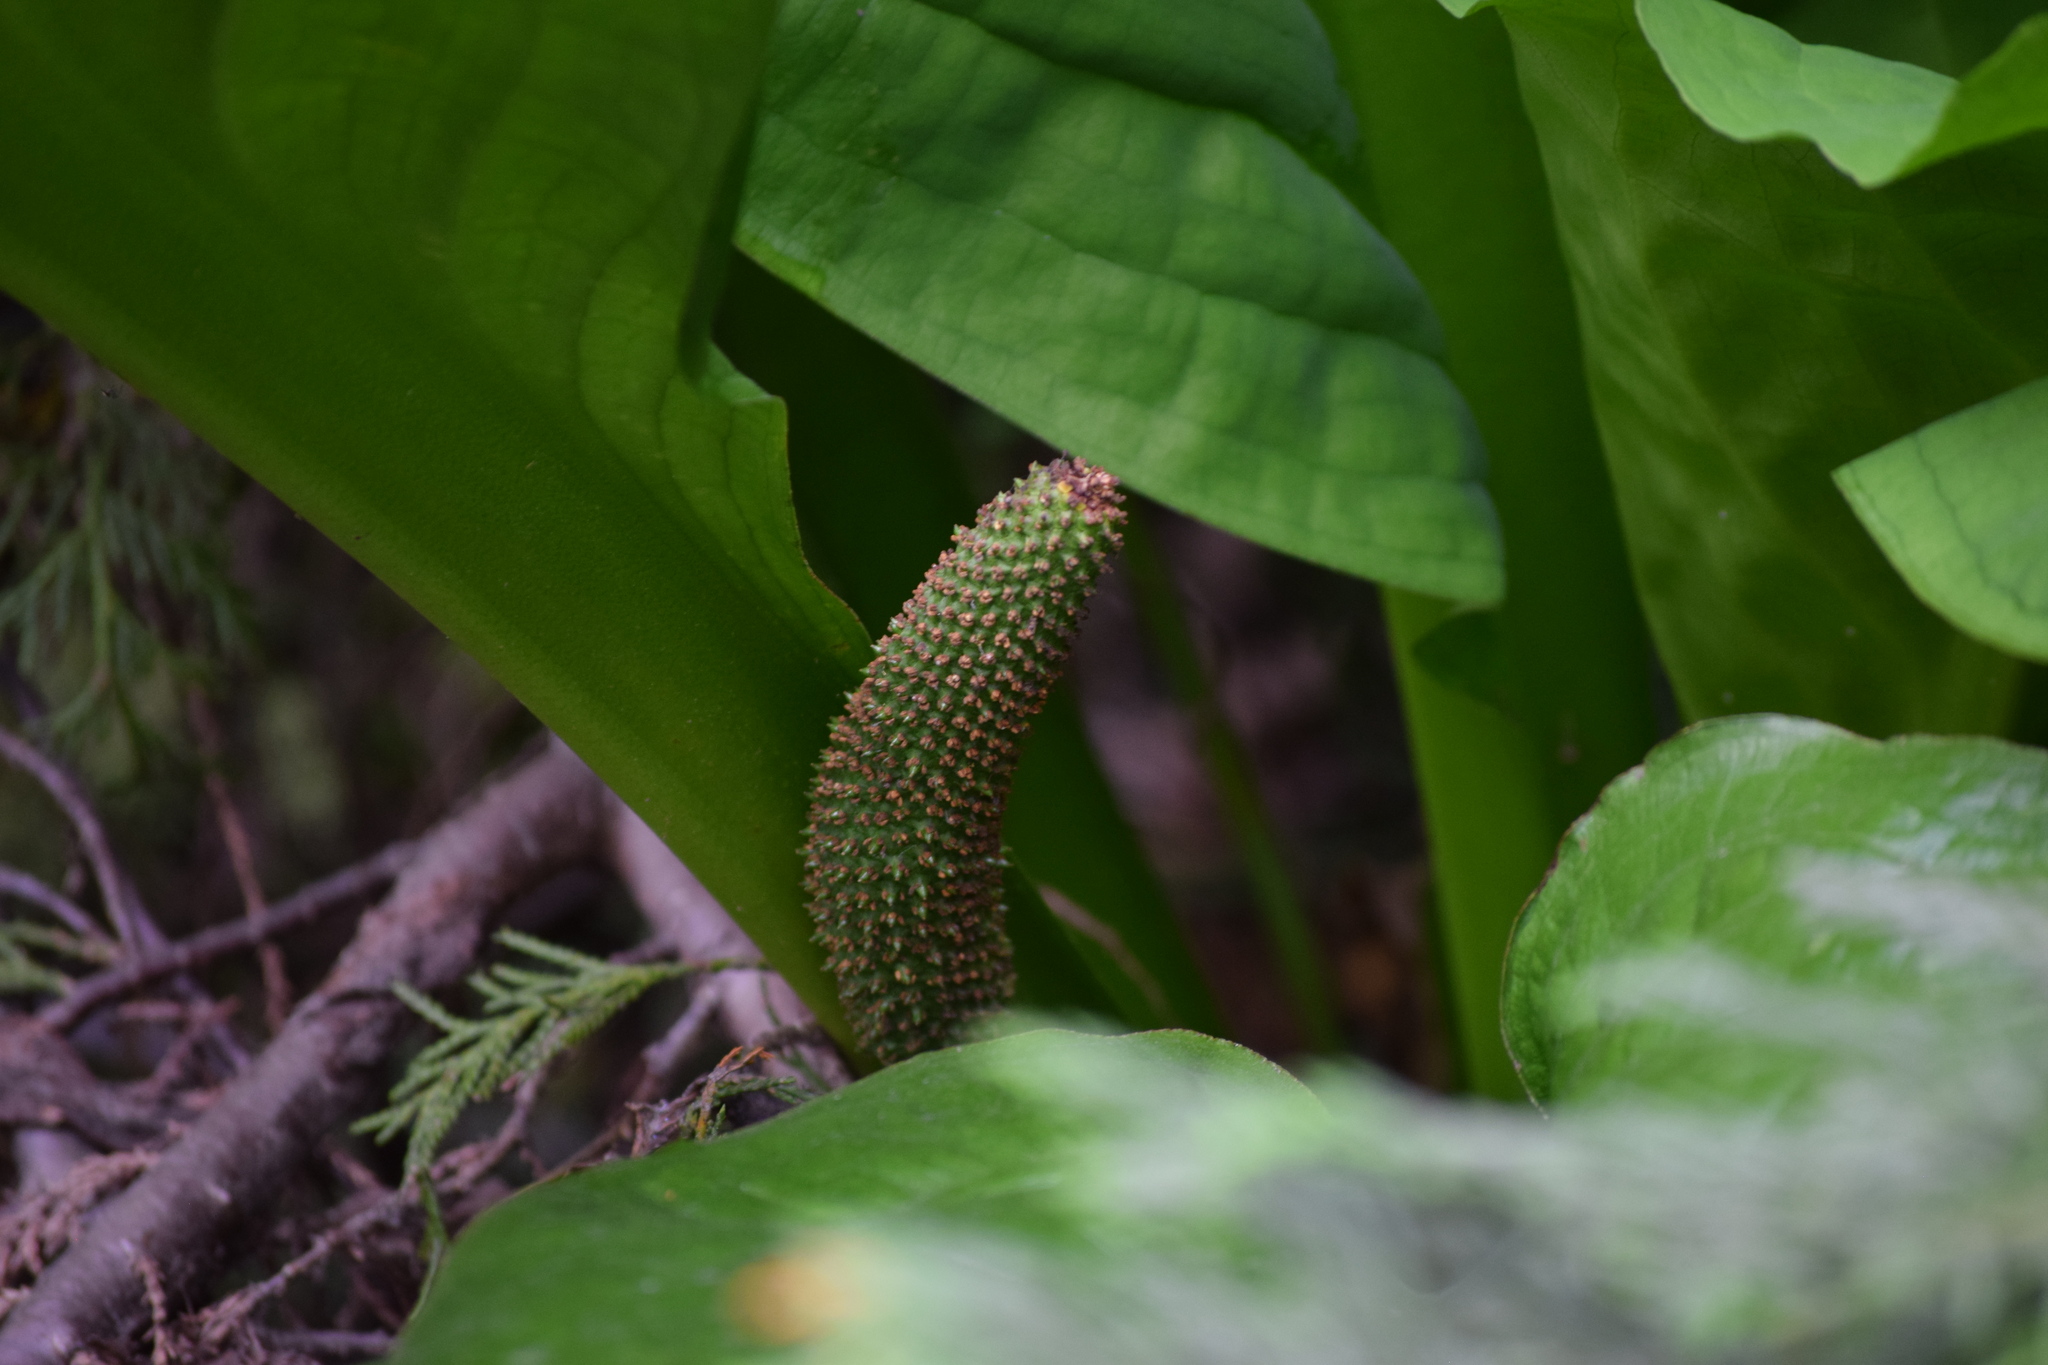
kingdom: Plantae
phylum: Tracheophyta
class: Liliopsida
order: Alismatales
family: Araceae
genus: Lysichiton
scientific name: Lysichiton americanus
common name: American skunk cabbage
